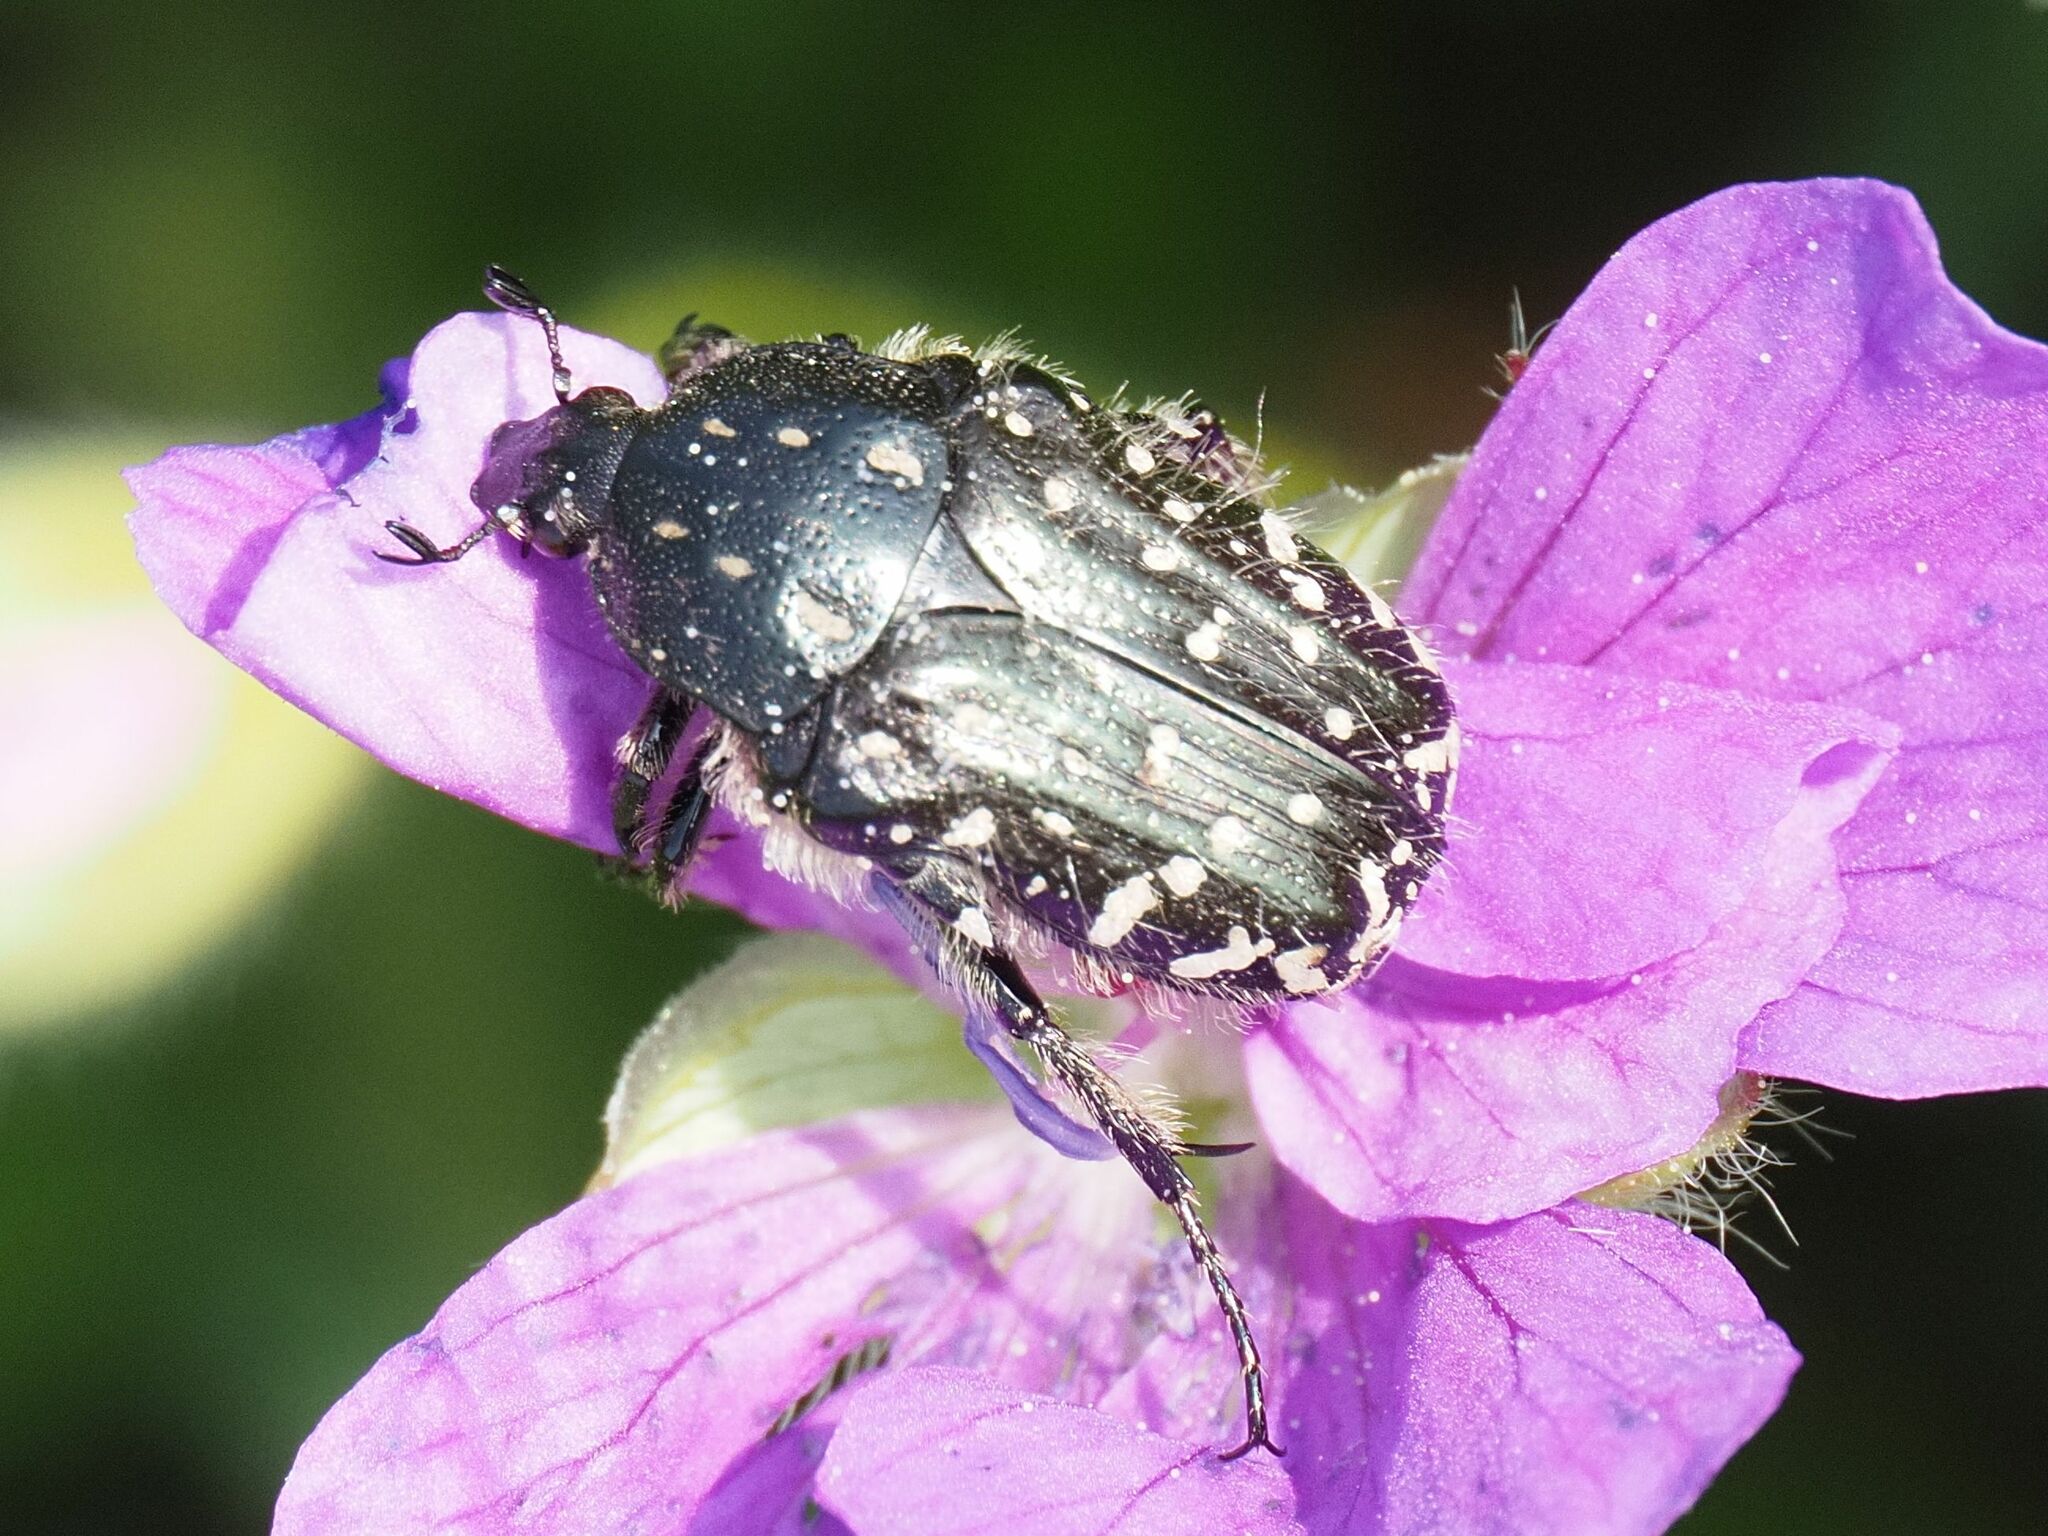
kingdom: Animalia
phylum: Arthropoda
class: Insecta
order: Coleoptera
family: Scarabaeidae
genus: Oxythyrea
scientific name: Oxythyrea funesta
